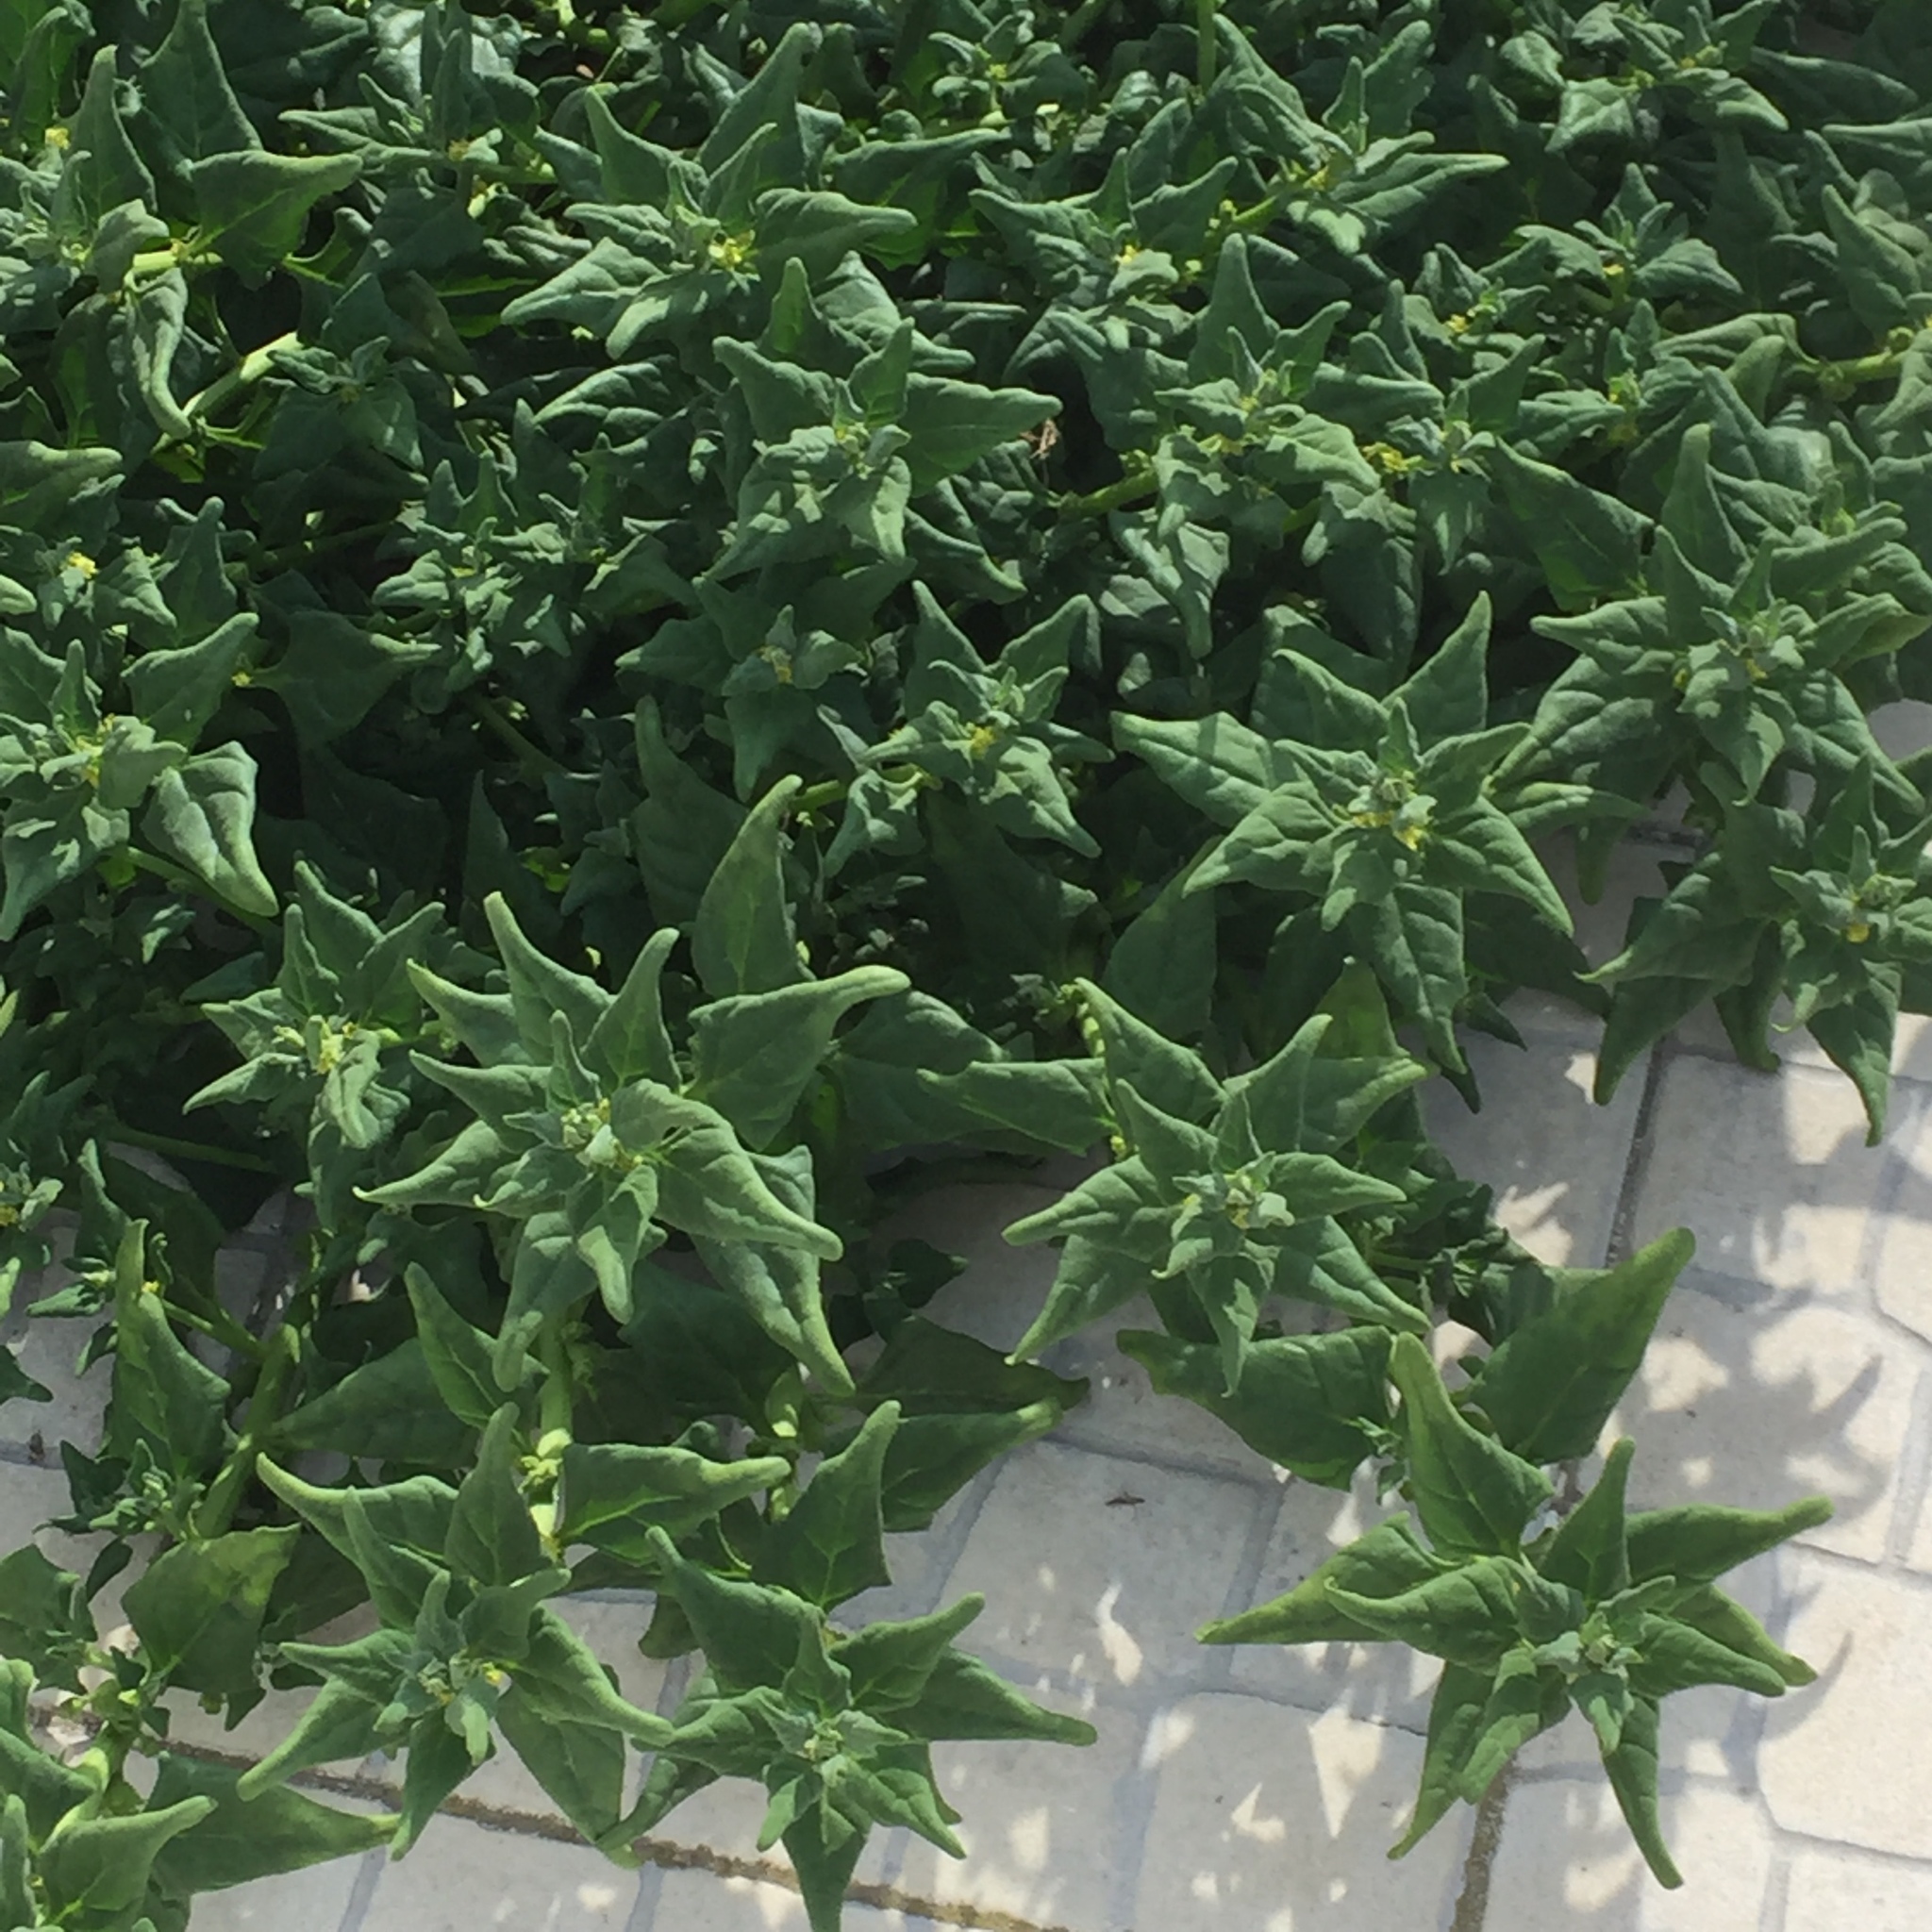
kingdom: Plantae
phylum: Tracheophyta
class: Magnoliopsida
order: Caryophyllales
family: Aizoaceae
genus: Tetragonia
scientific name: Tetragonia tetragonoides
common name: New zealand-spinach
